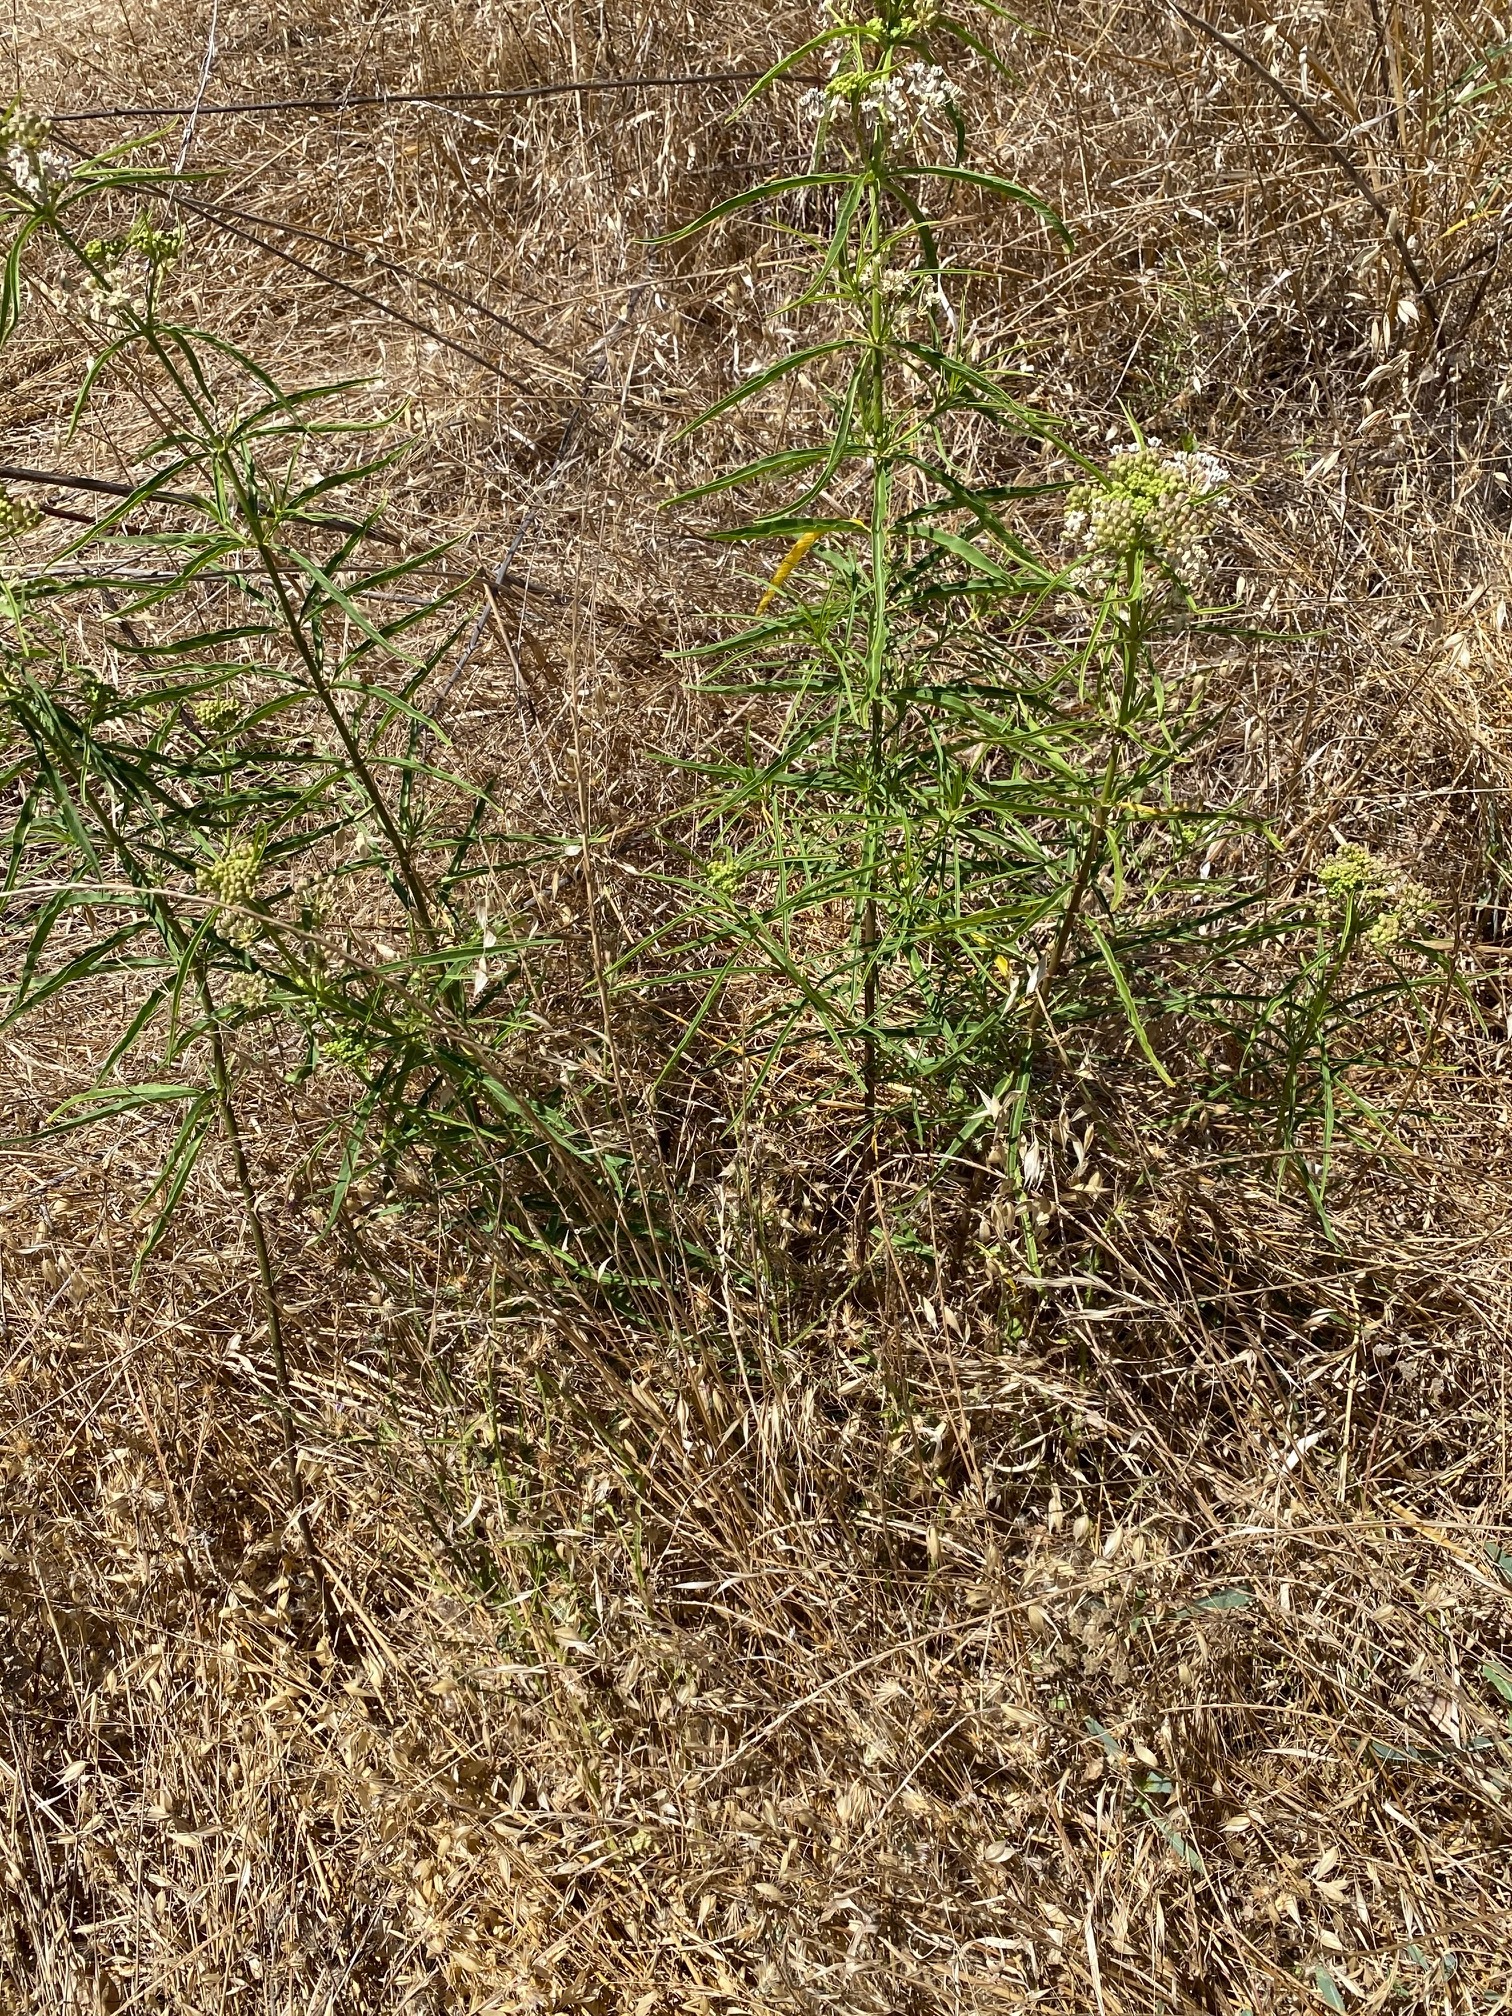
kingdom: Plantae
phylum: Tracheophyta
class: Magnoliopsida
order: Gentianales
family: Apocynaceae
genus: Asclepias
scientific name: Asclepias fascicularis
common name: Mexican milkweed
